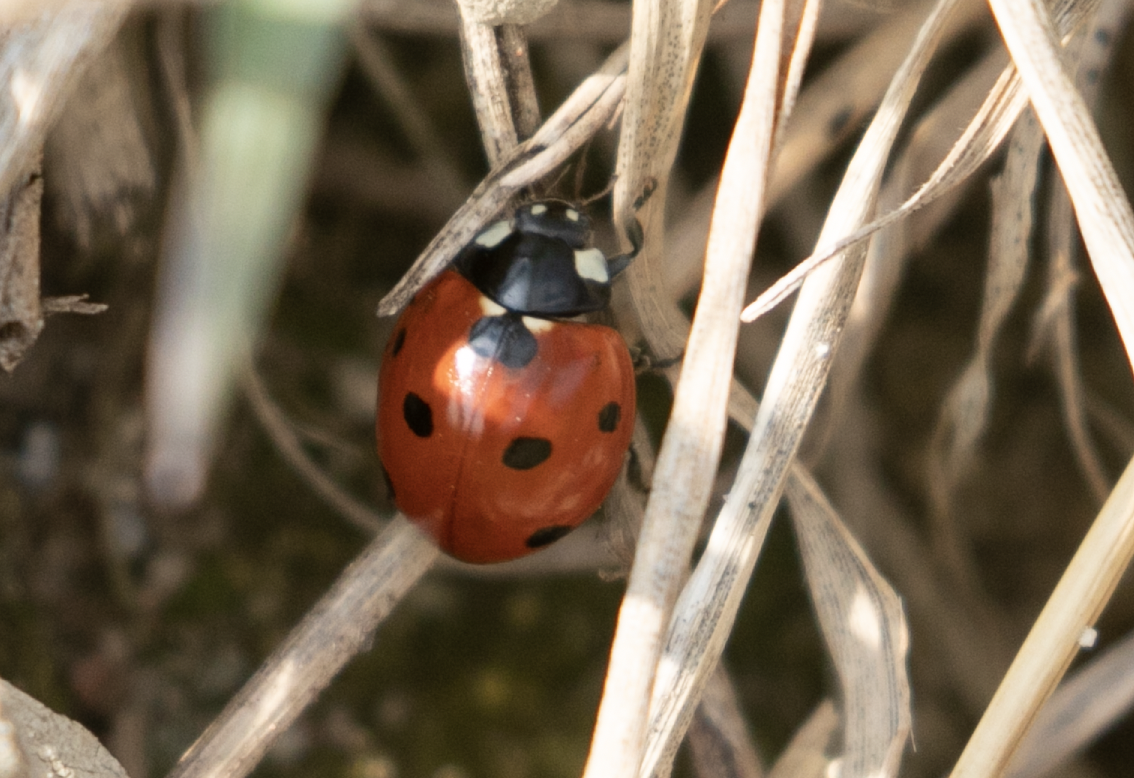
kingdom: Animalia
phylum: Arthropoda
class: Insecta
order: Coleoptera
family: Coccinellidae
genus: Coccinella
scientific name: Coccinella septempunctata
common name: Sevenspotted lady beetle
